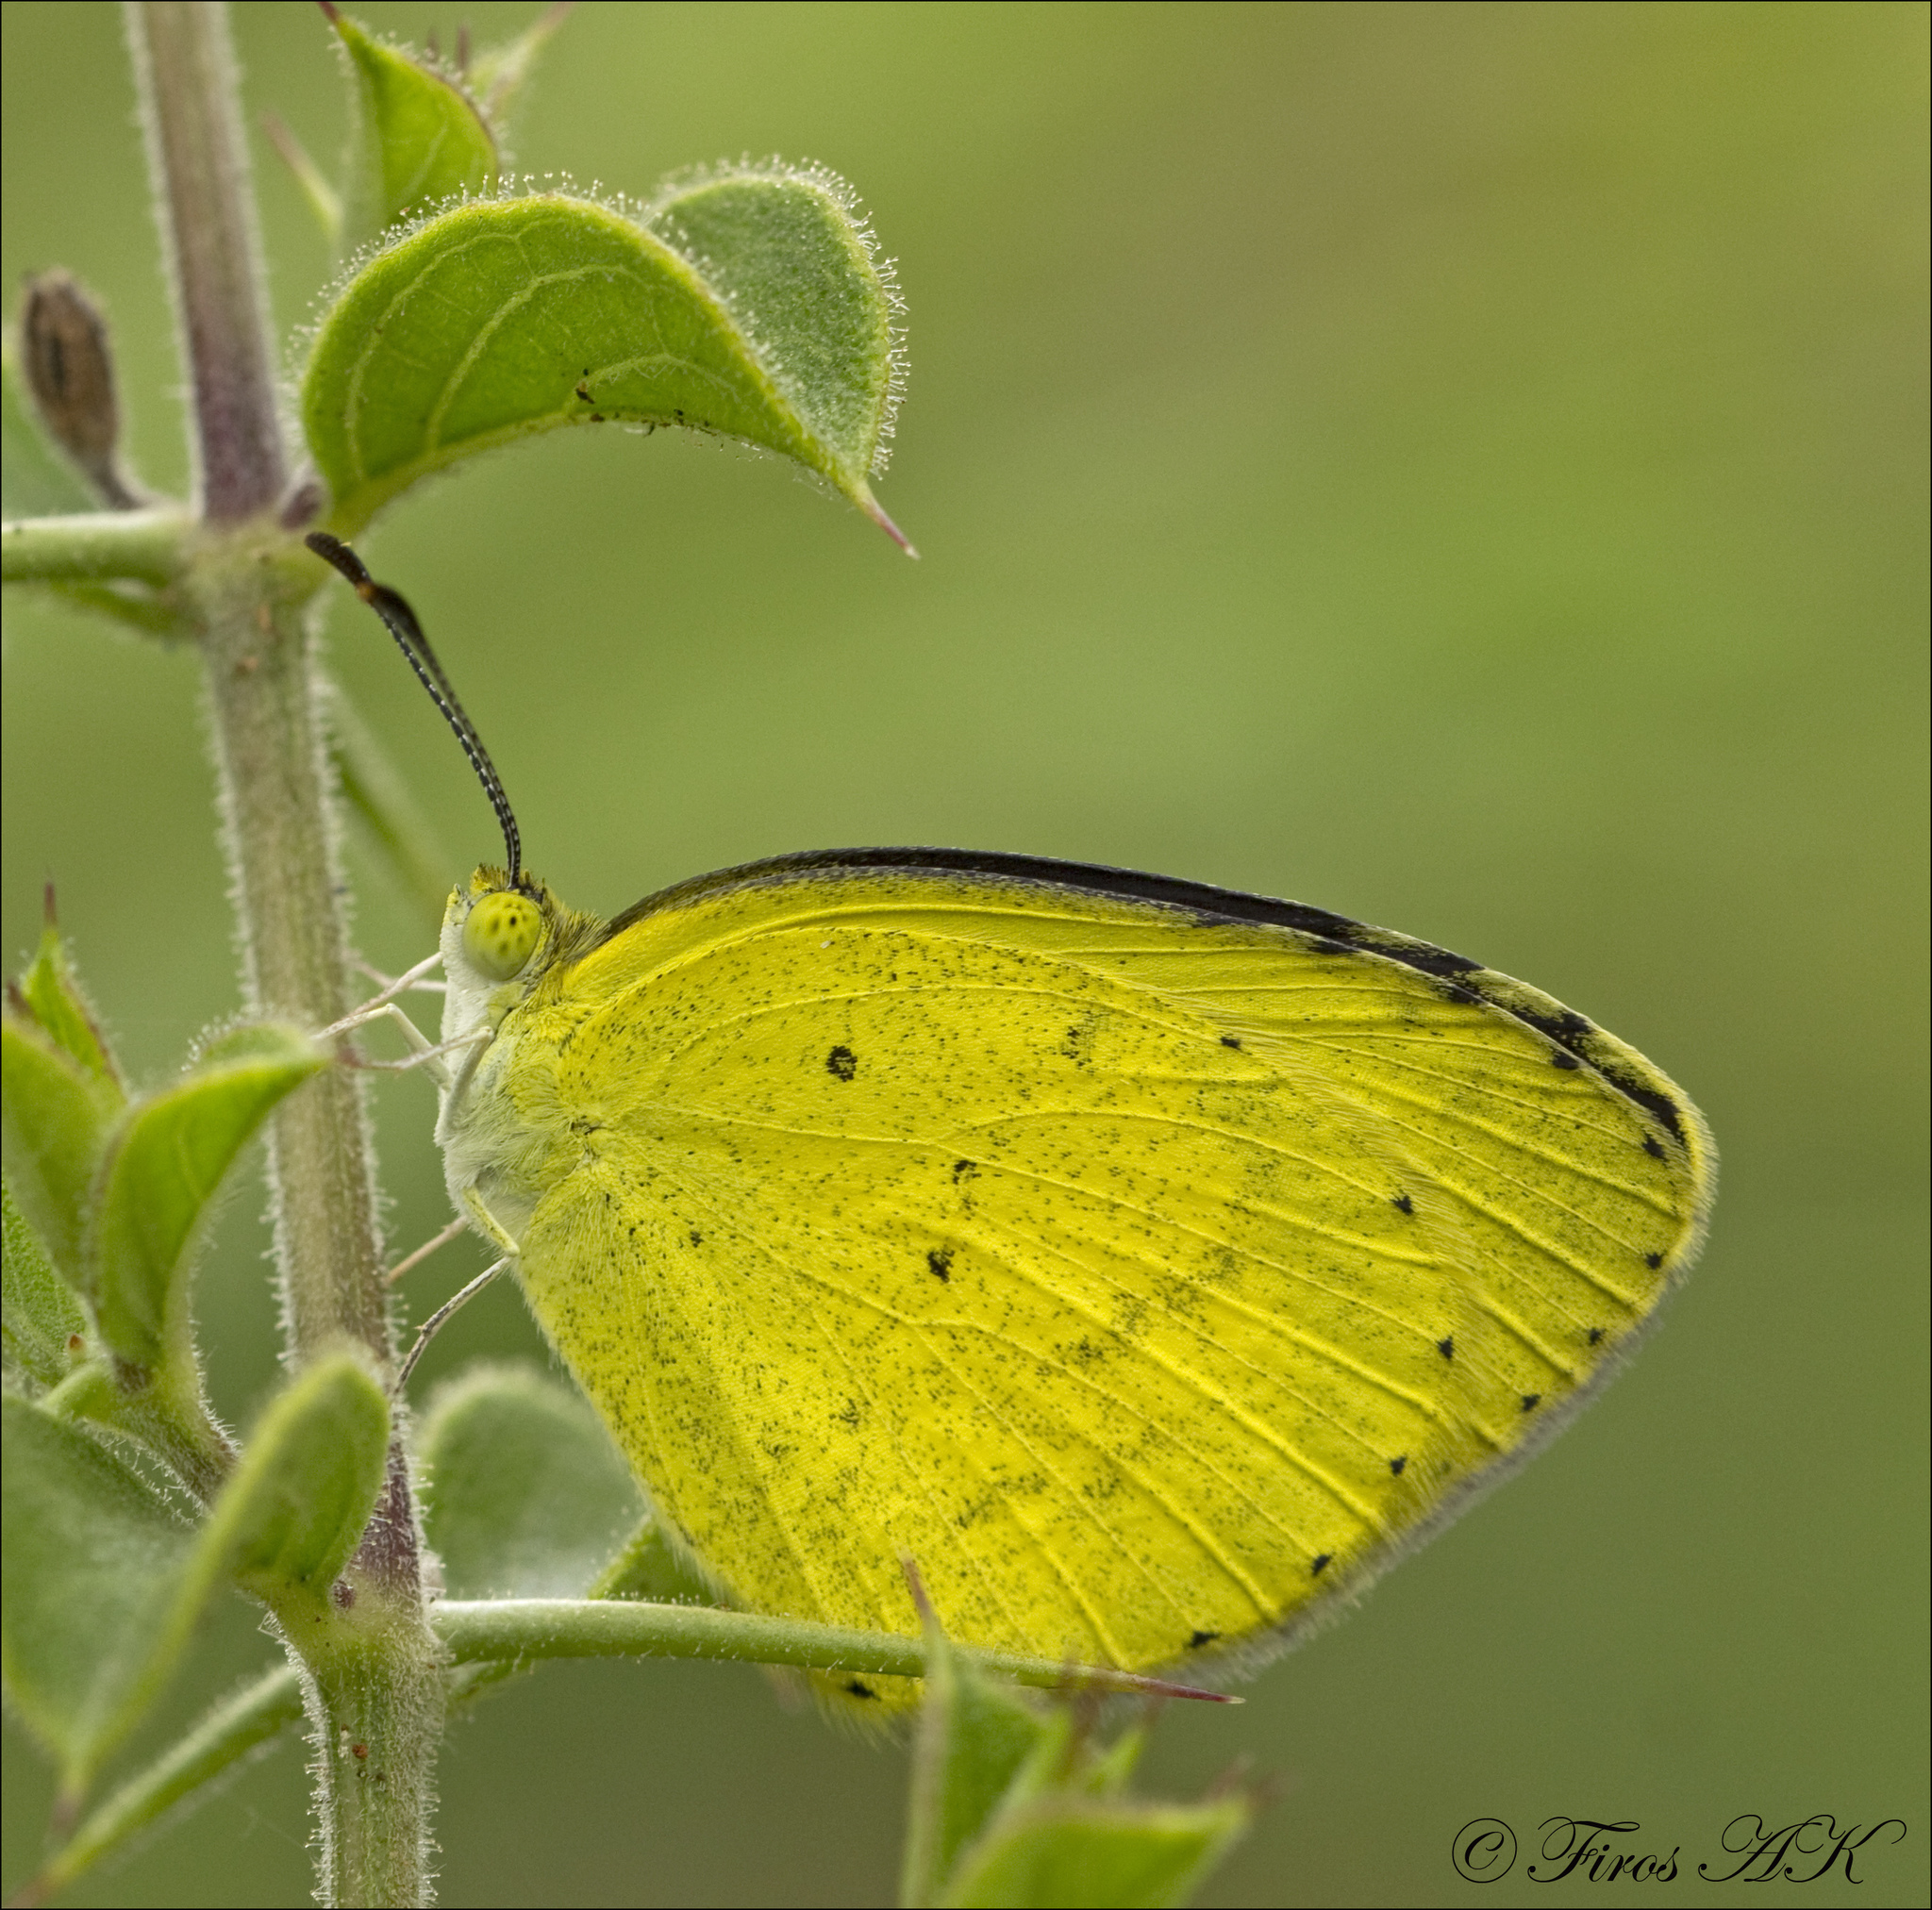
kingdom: Animalia
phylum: Arthropoda
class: Insecta
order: Lepidoptera
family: Pieridae
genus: Eurema
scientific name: Eurema brigitta
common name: Small grass yellow
